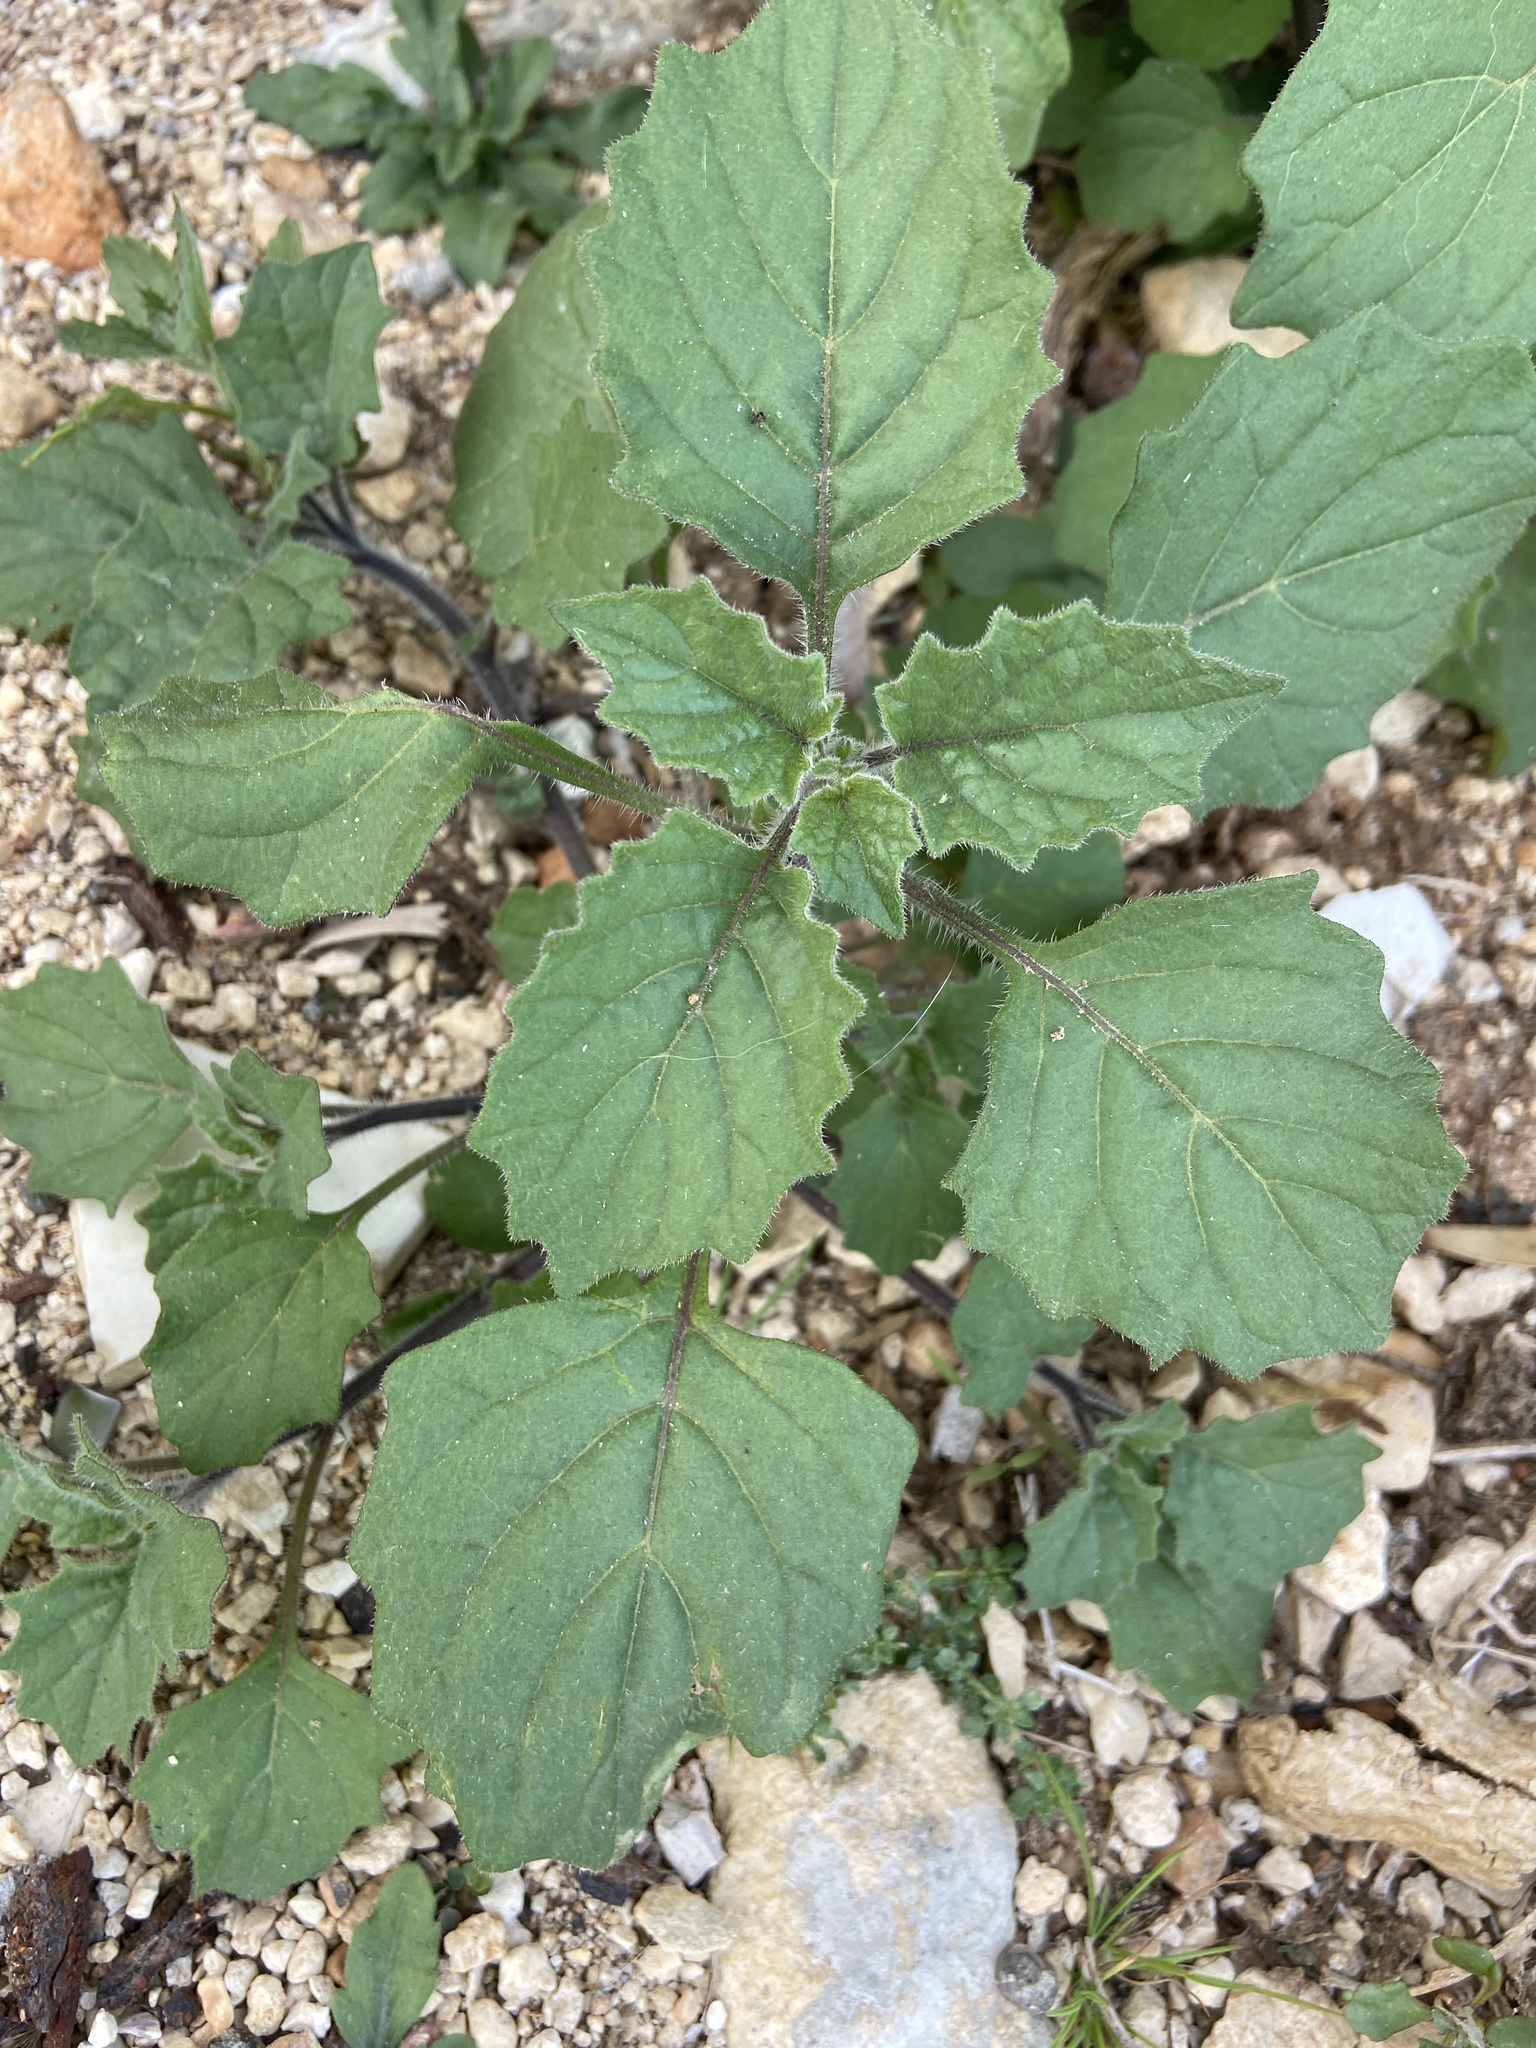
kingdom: Plantae
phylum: Tracheophyta
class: Magnoliopsida
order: Solanales
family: Solanaceae
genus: Solanum
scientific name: Solanum villosum
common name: Red nightshade
